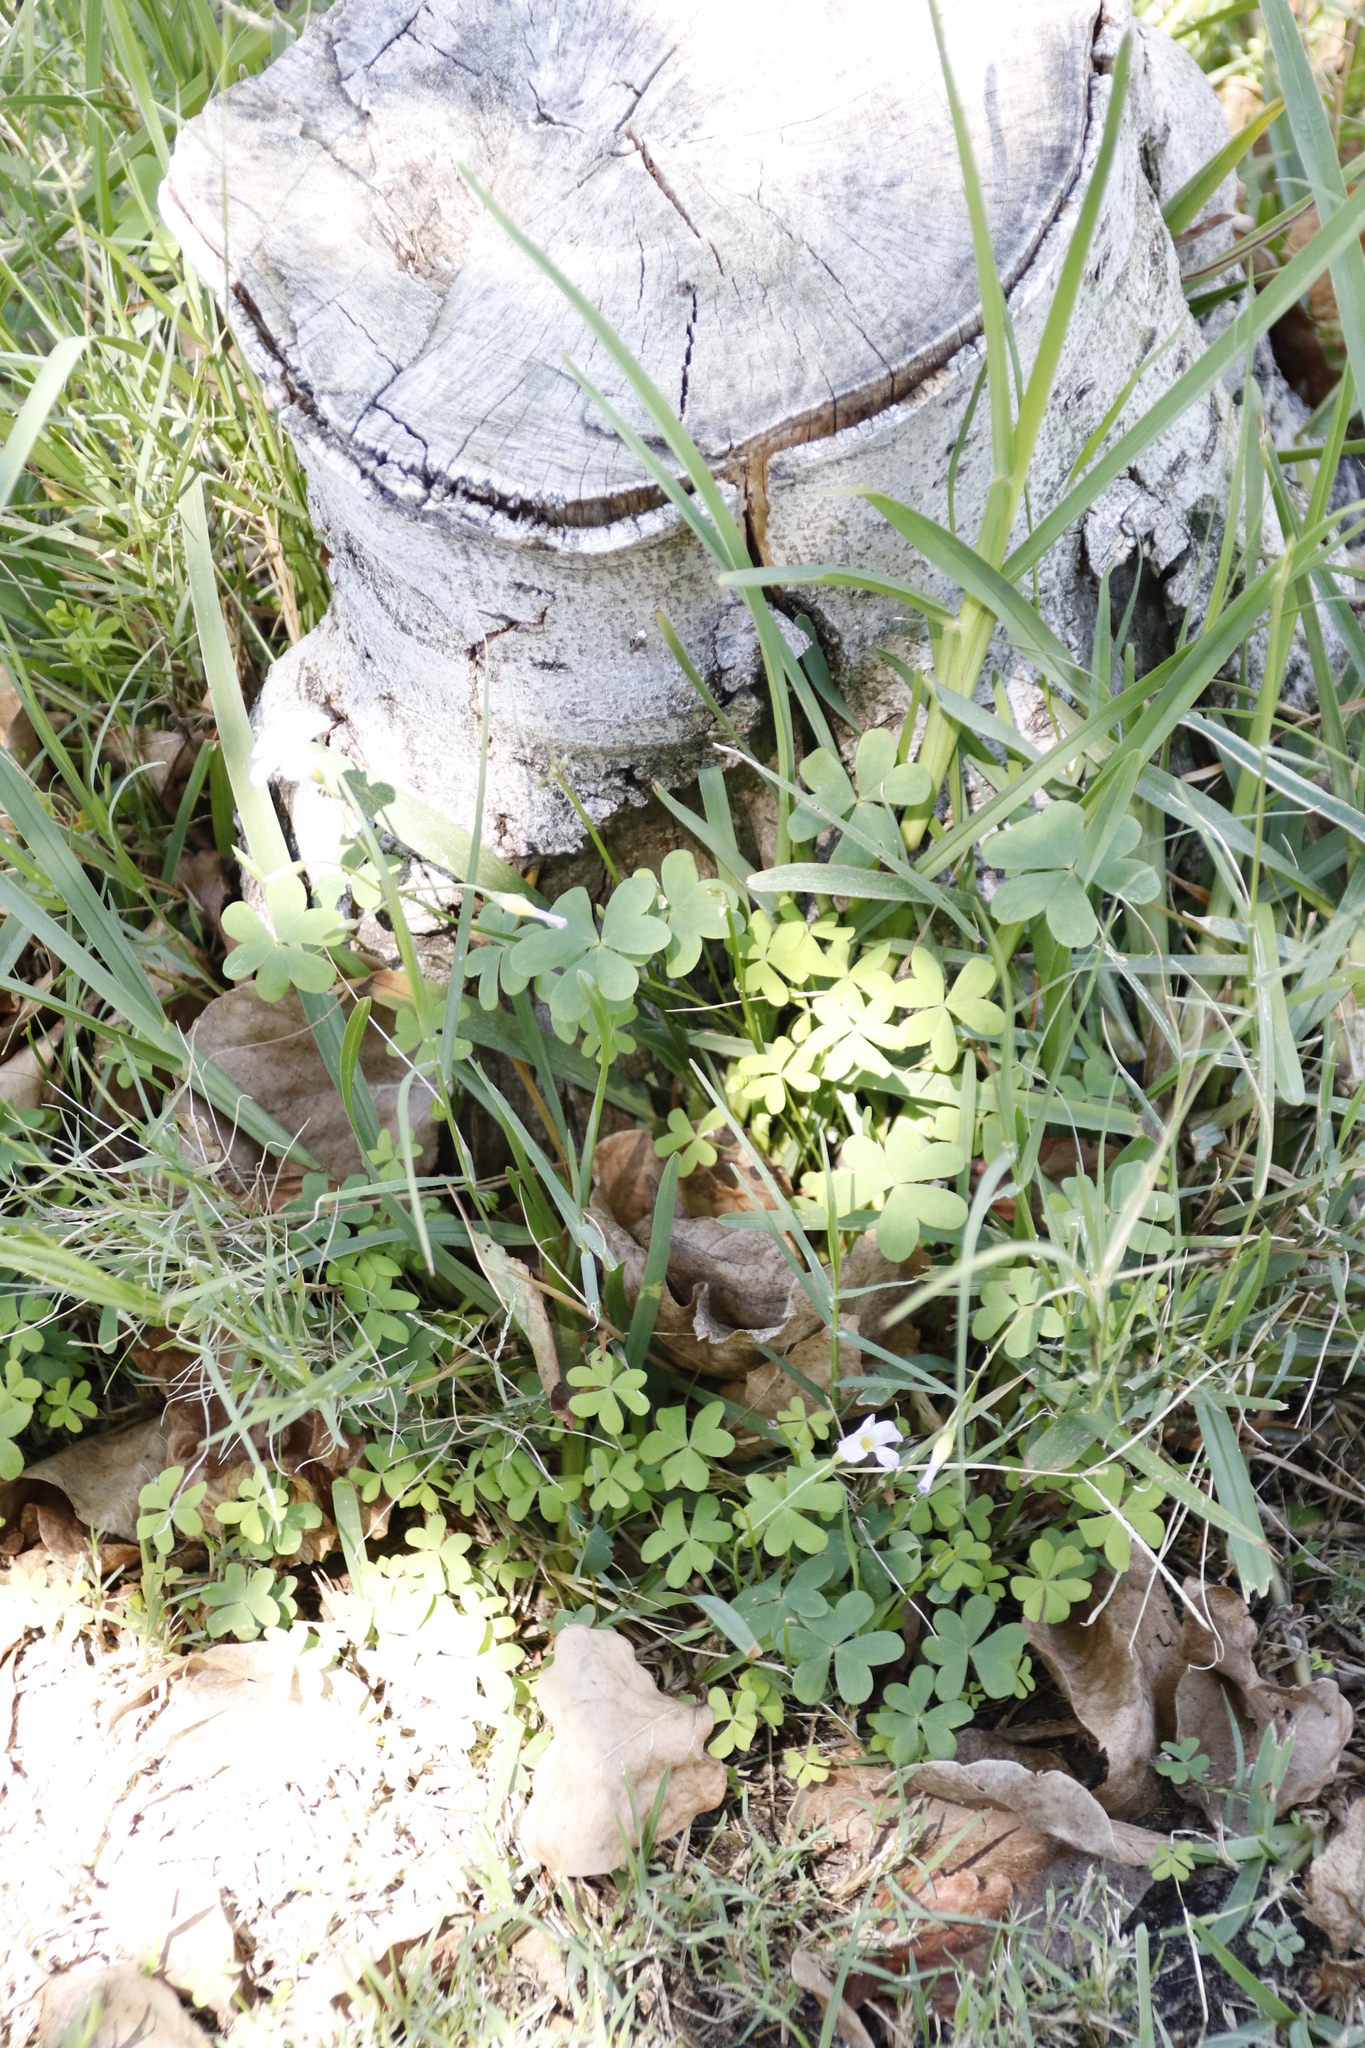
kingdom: Plantae
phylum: Tracheophyta
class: Magnoliopsida
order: Oxalidales
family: Oxalidaceae
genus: Oxalis
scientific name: Oxalis caprina
